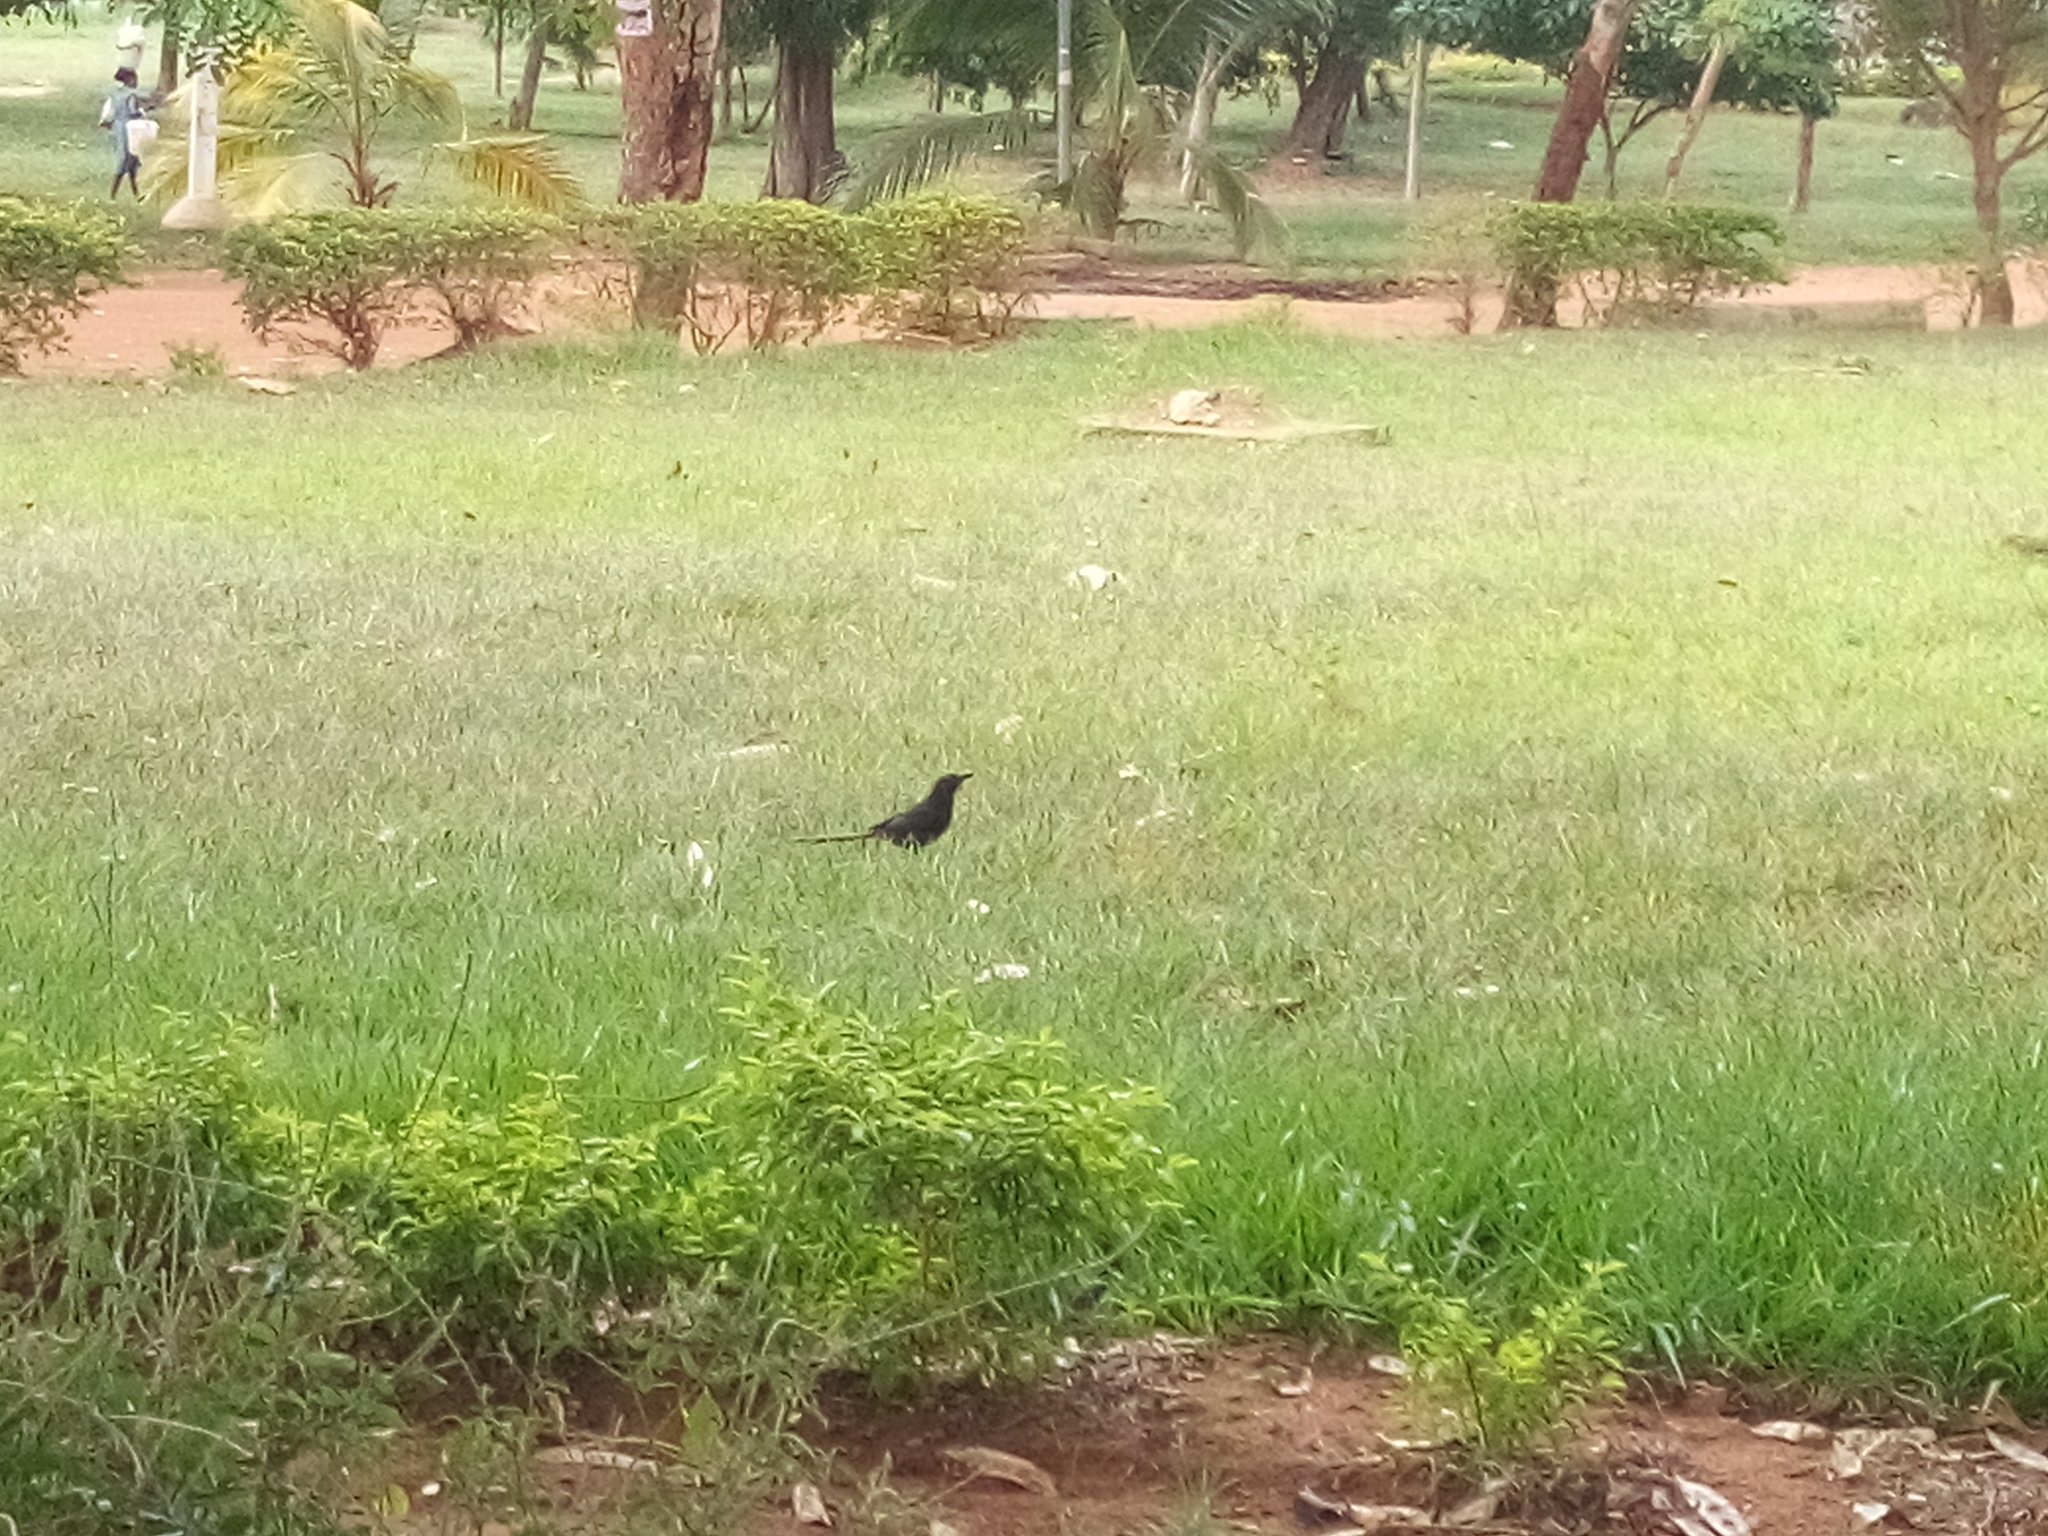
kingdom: Animalia
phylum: Chordata
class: Aves
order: Passeriformes
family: Corvidae
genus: Ptilostomus
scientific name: Ptilostomus afer
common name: Piapiac
